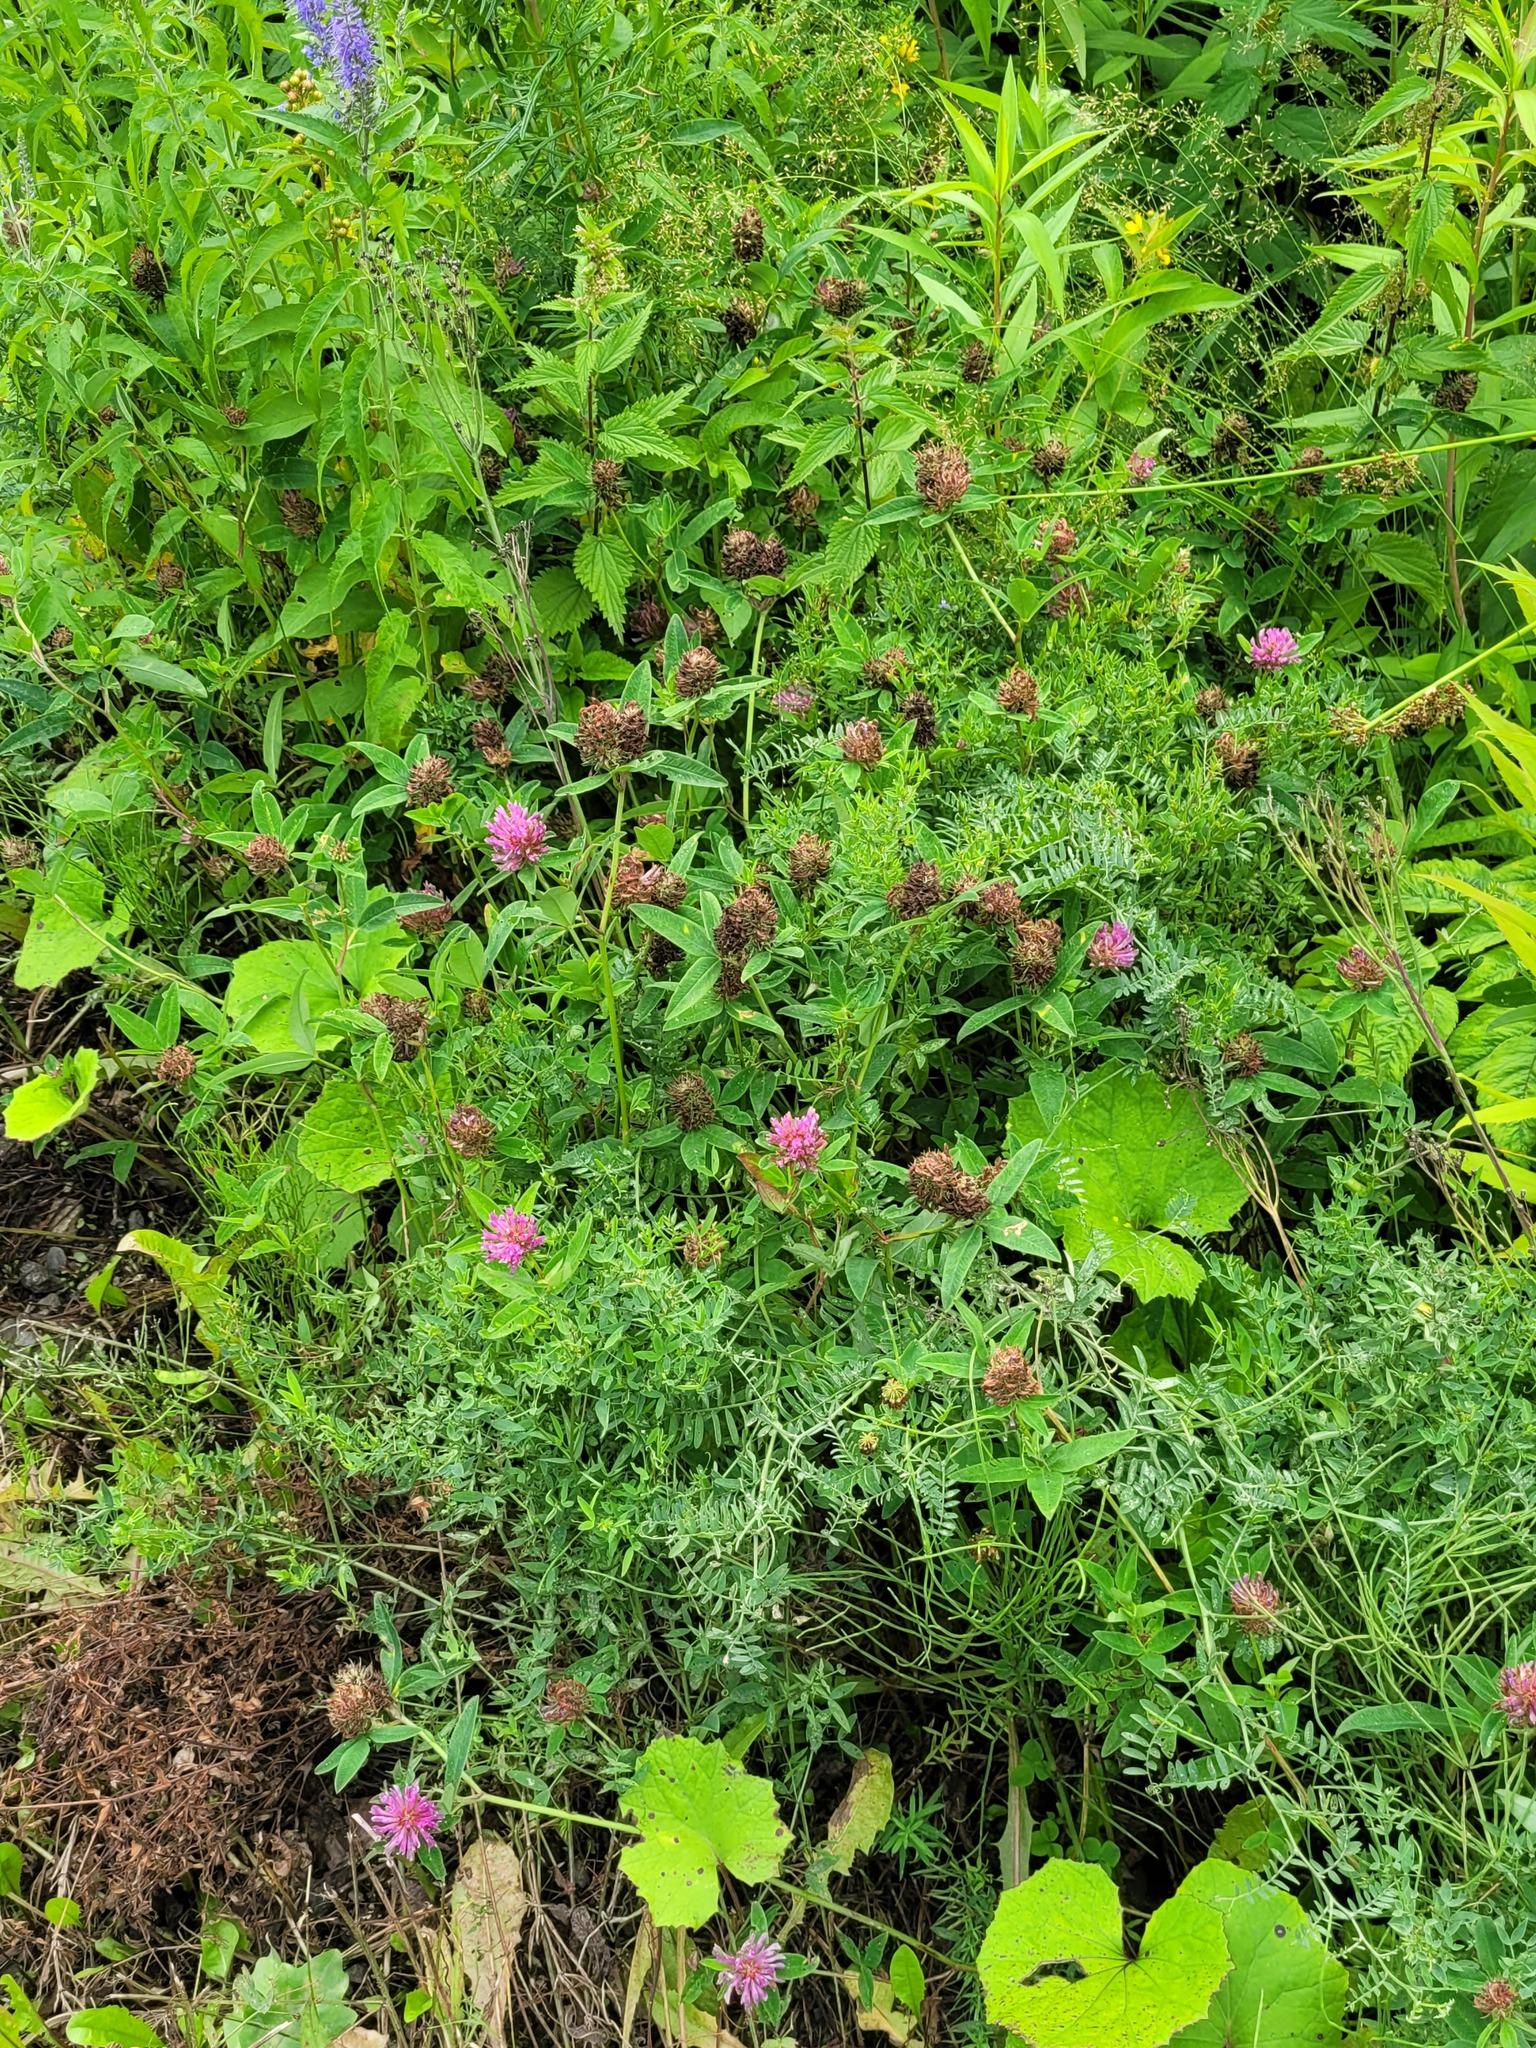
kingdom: Plantae
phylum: Tracheophyta
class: Magnoliopsida
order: Fabales
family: Fabaceae
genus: Trifolium
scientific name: Trifolium medium
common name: Zigzag clover
